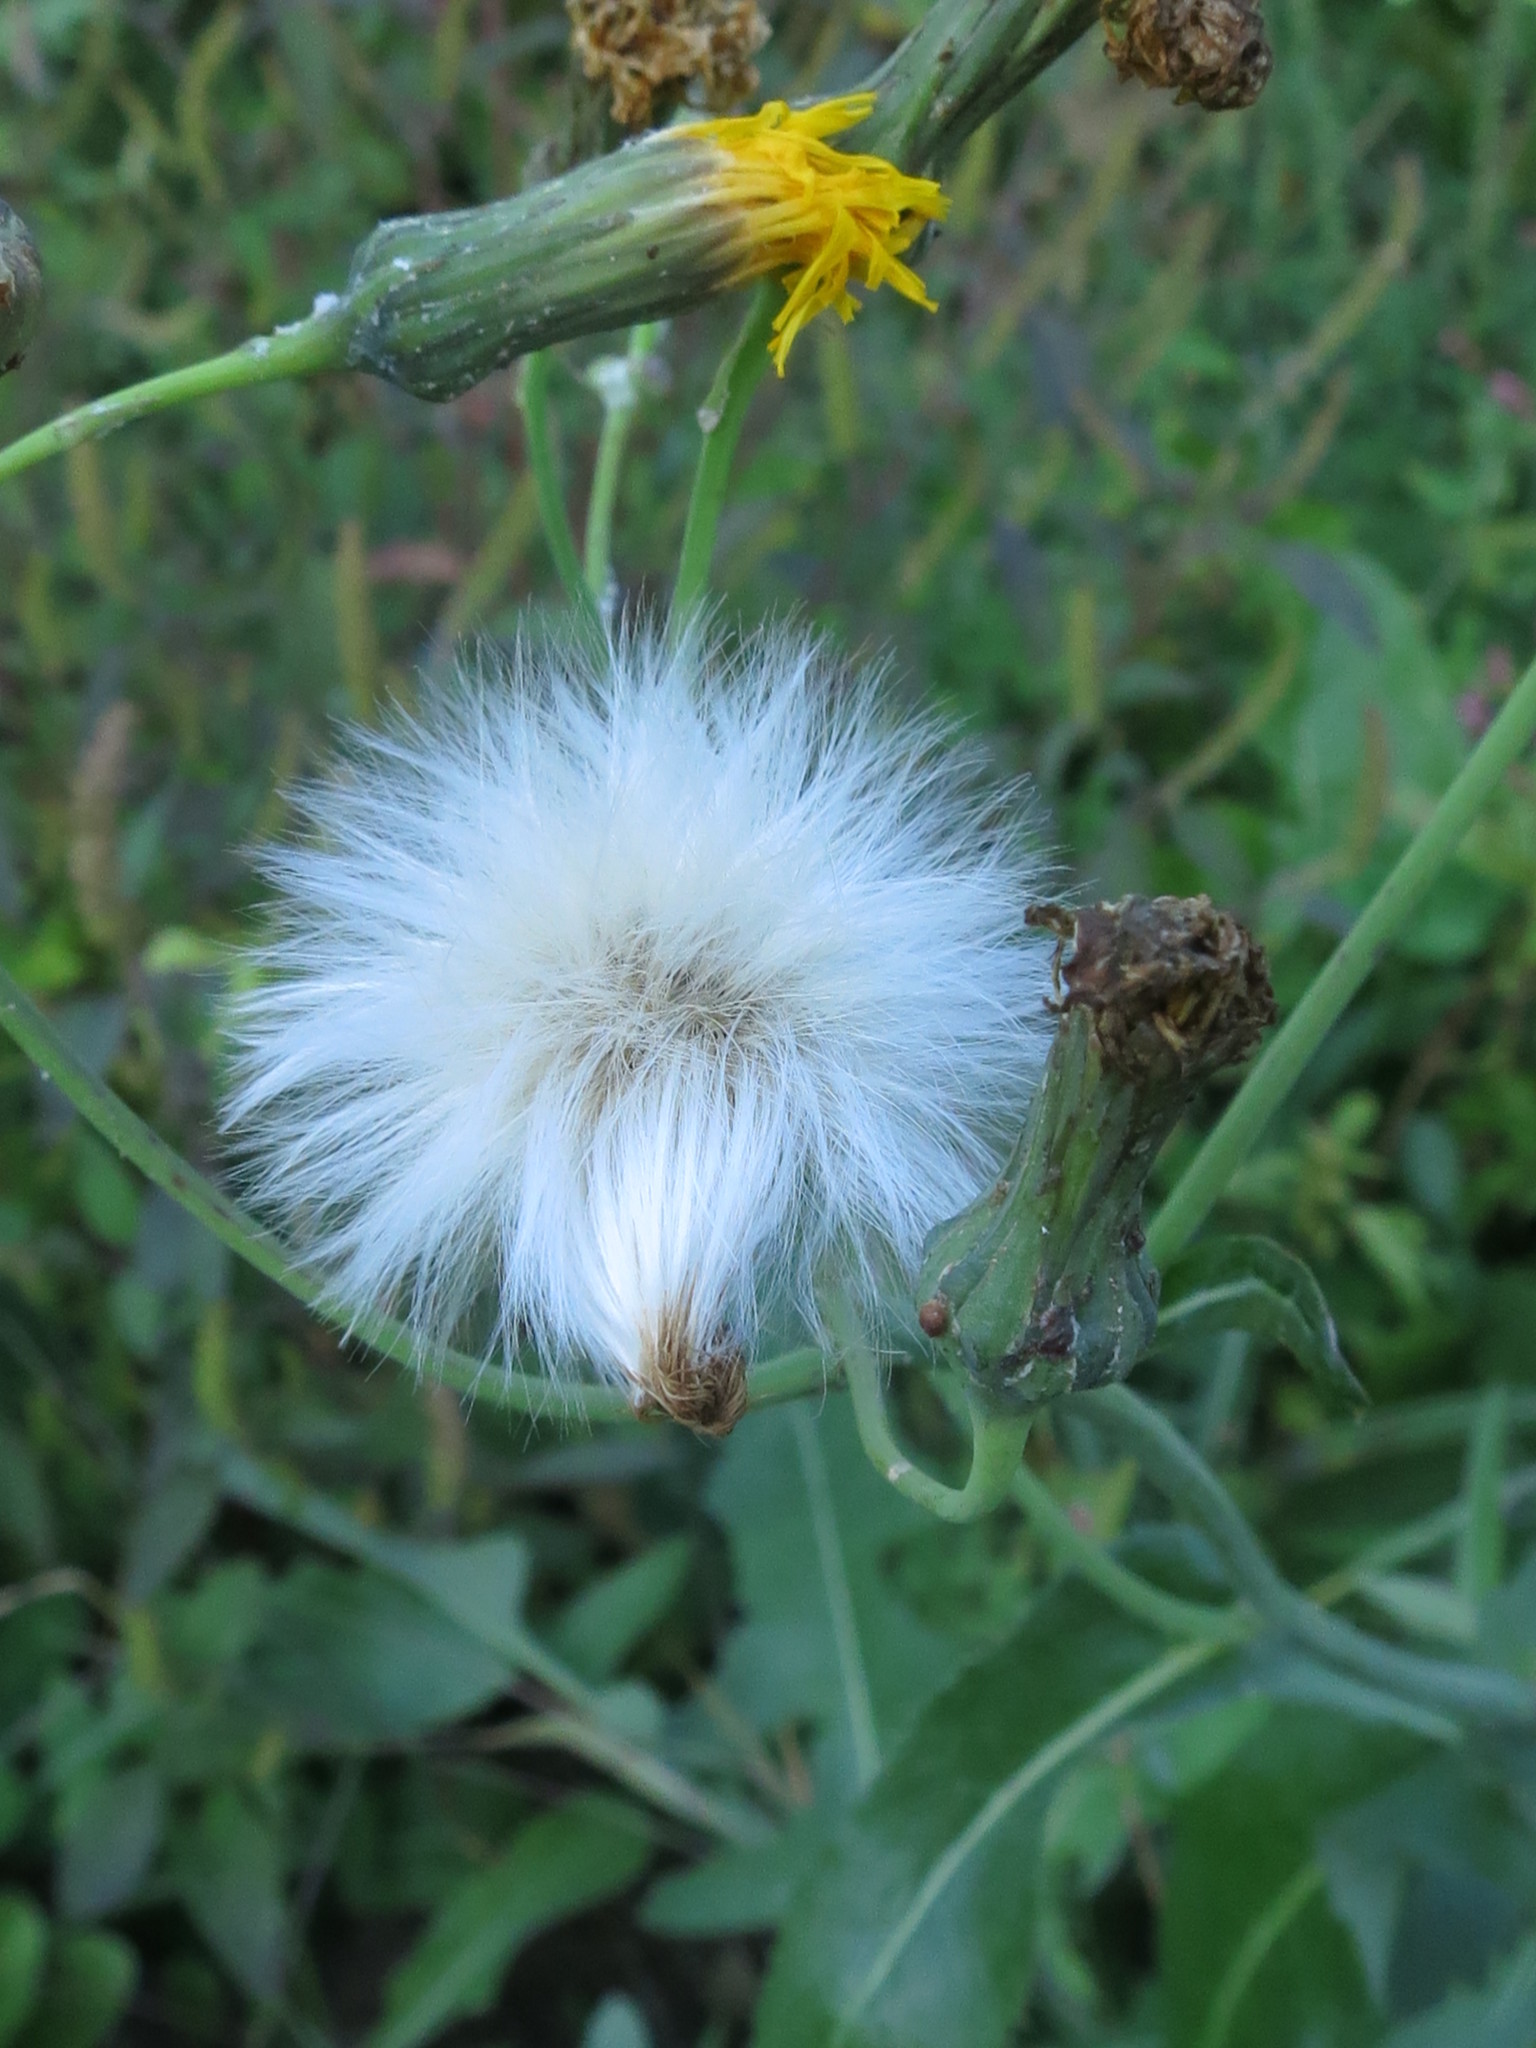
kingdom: Plantae
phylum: Tracheophyta
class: Magnoliopsida
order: Asterales
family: Asteraceae
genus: Sonchus
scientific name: Sonchus arvensis
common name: Perennial sow-thistle
